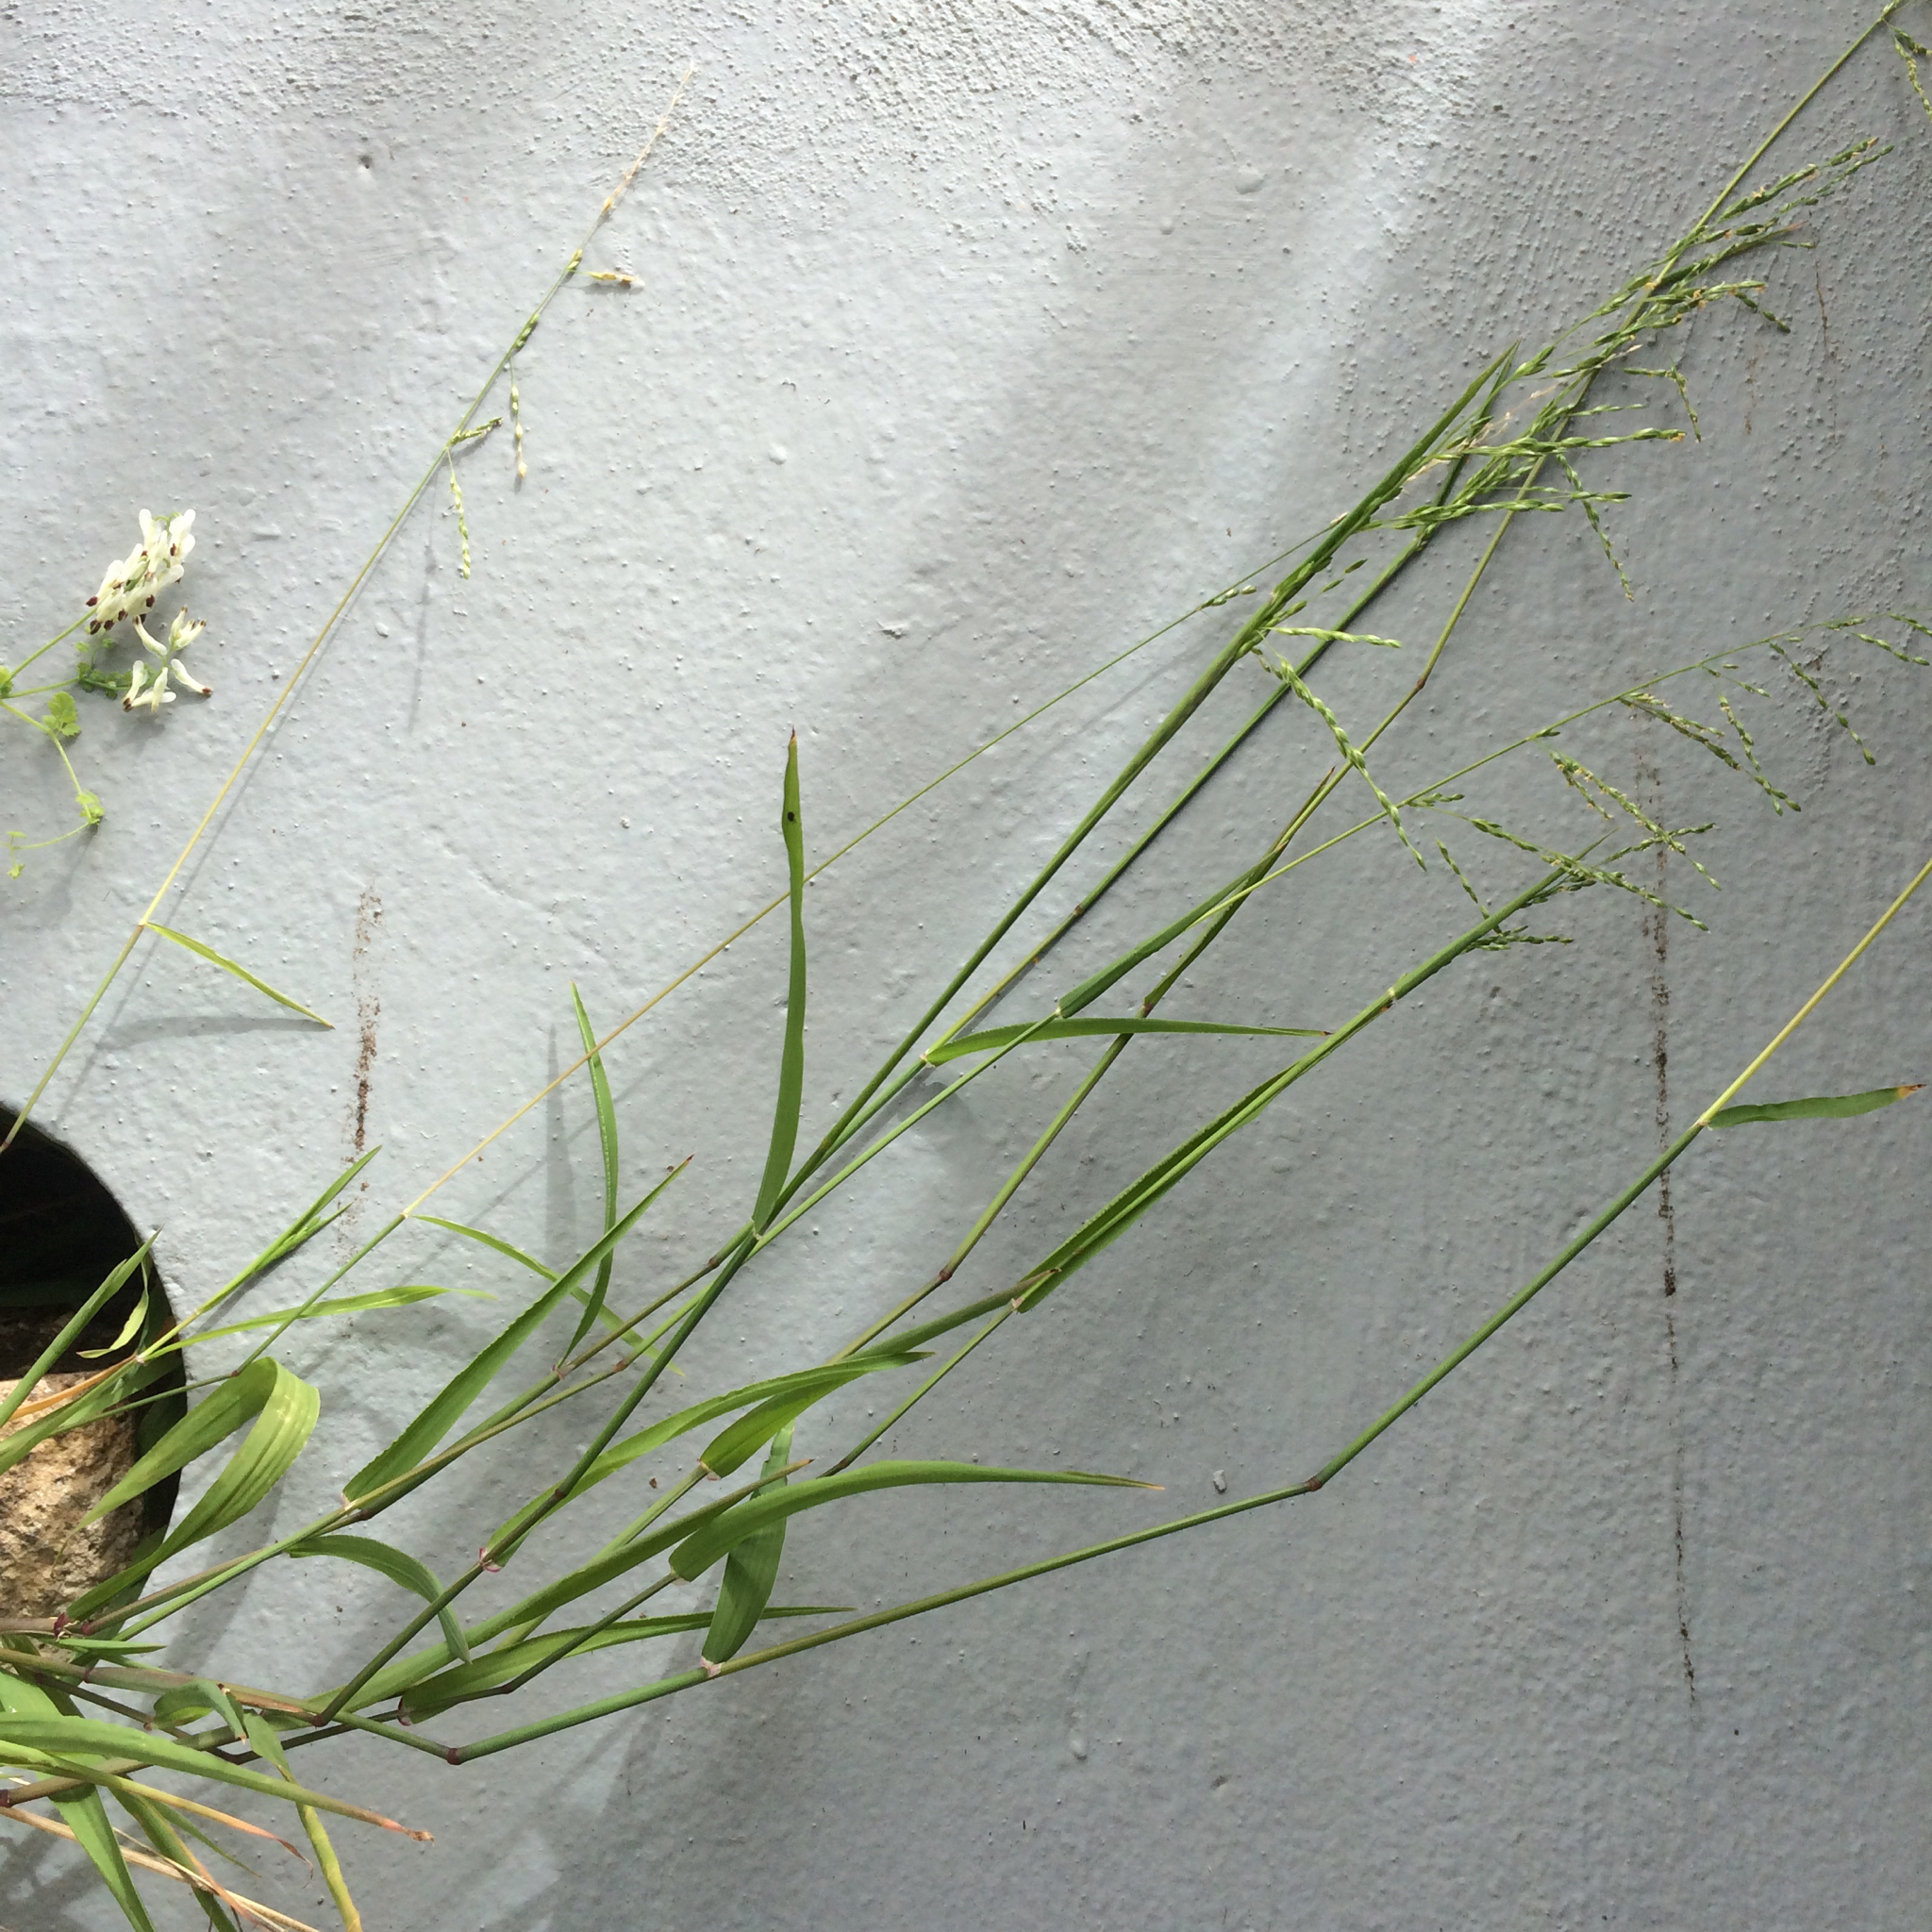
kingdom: Plantae
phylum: Tracheophyta
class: Liliopsida
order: Poales
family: Poaceae
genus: Ehrharta
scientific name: Ehrharta erecta
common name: Panic veldtgrass
